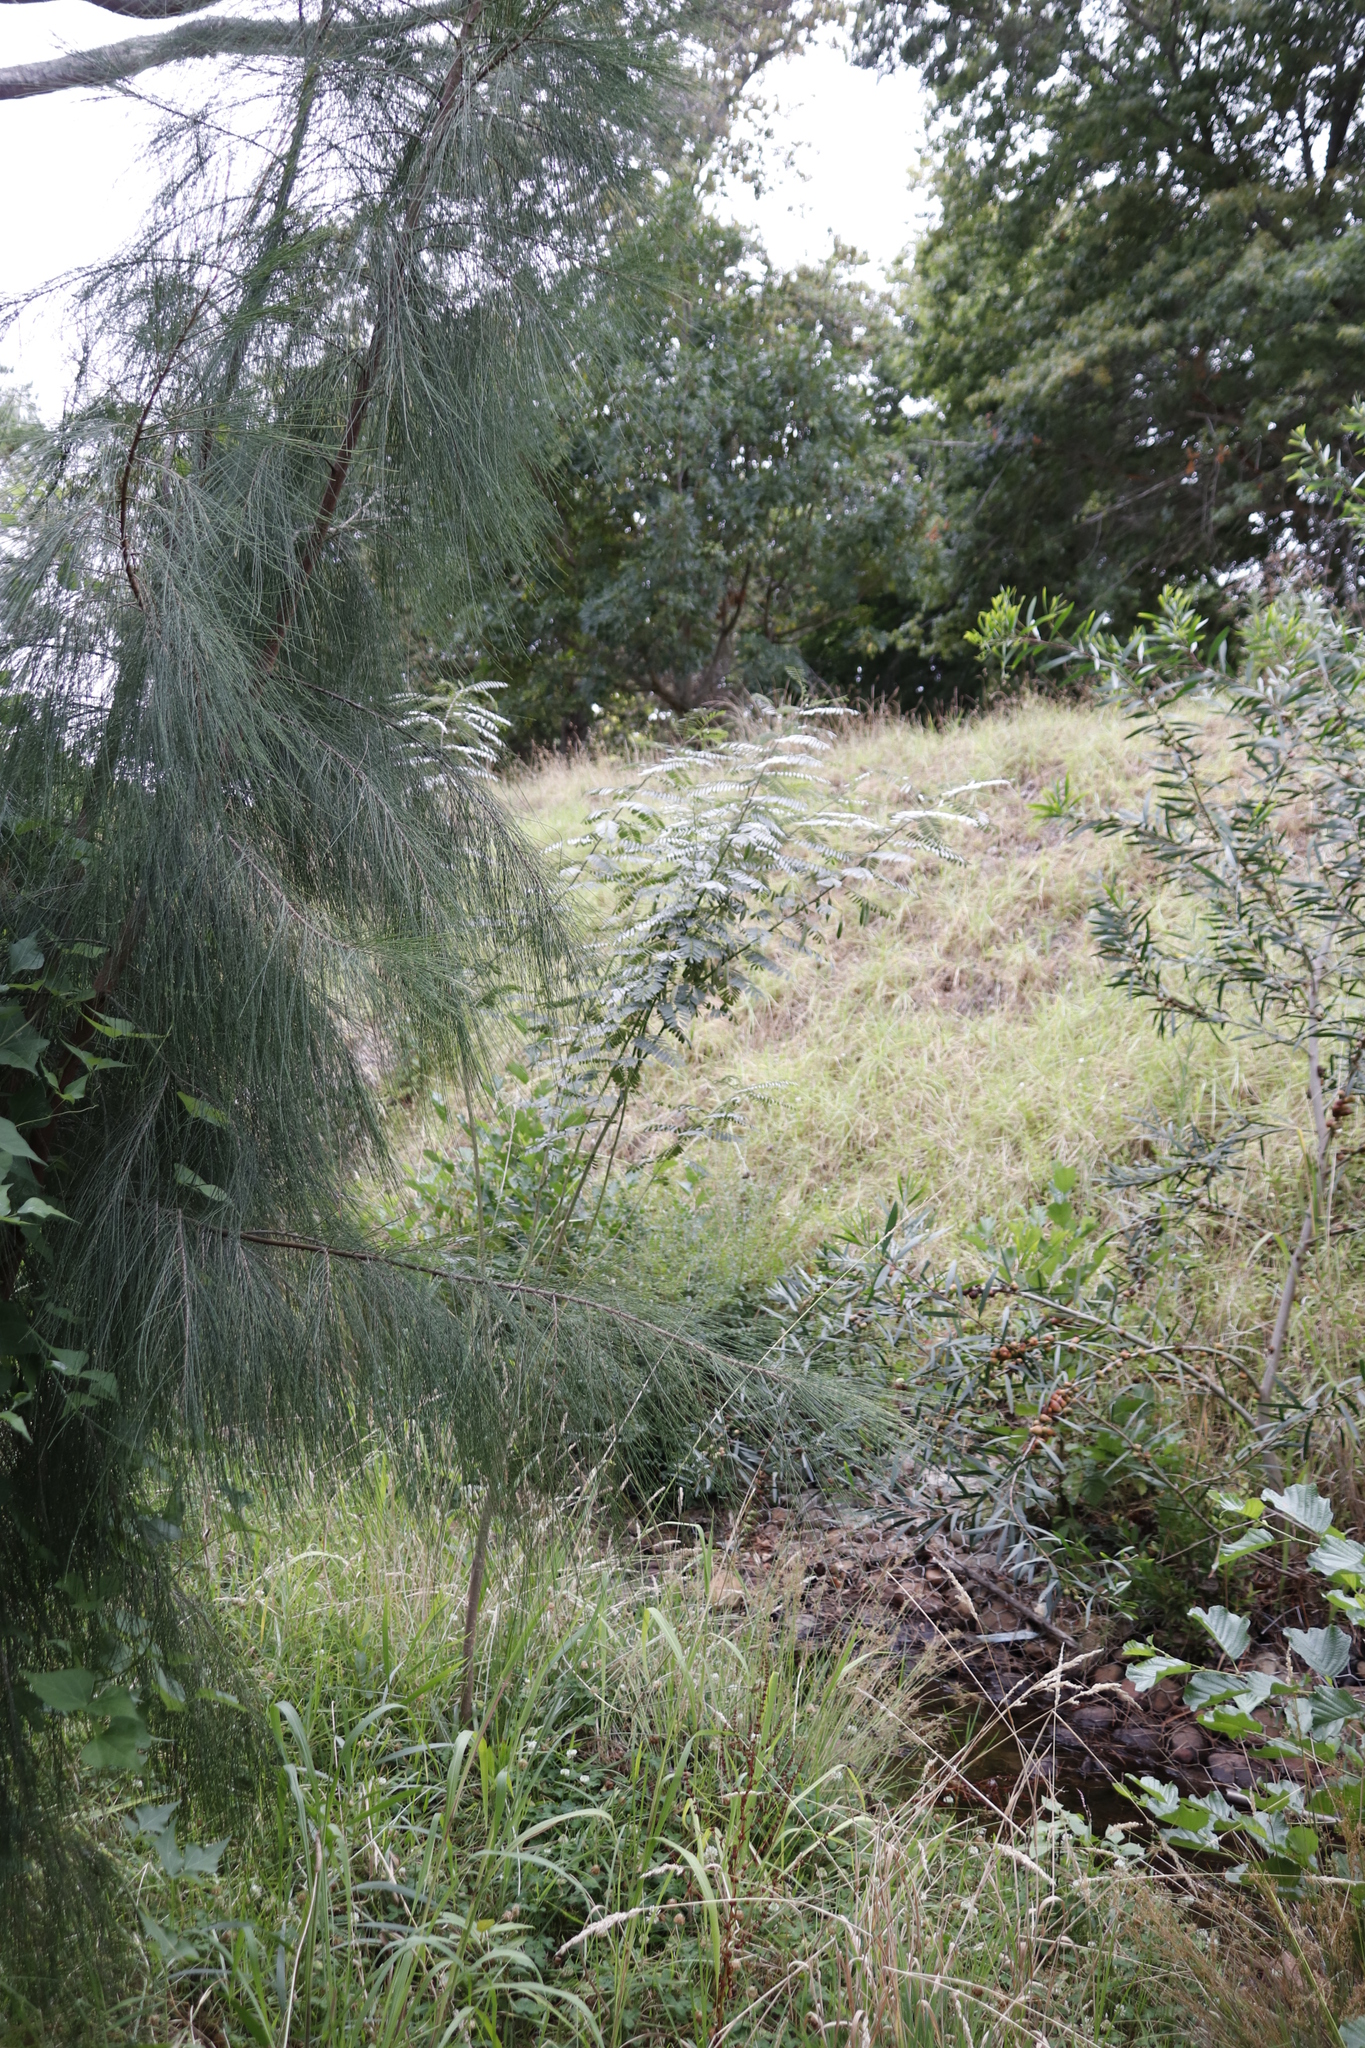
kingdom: Plantae
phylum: Tracheophyta
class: Magnoliopsida
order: Fabales
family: Fabaceae
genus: Sesbania
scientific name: Sesbania punicea
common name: Rattlebox
